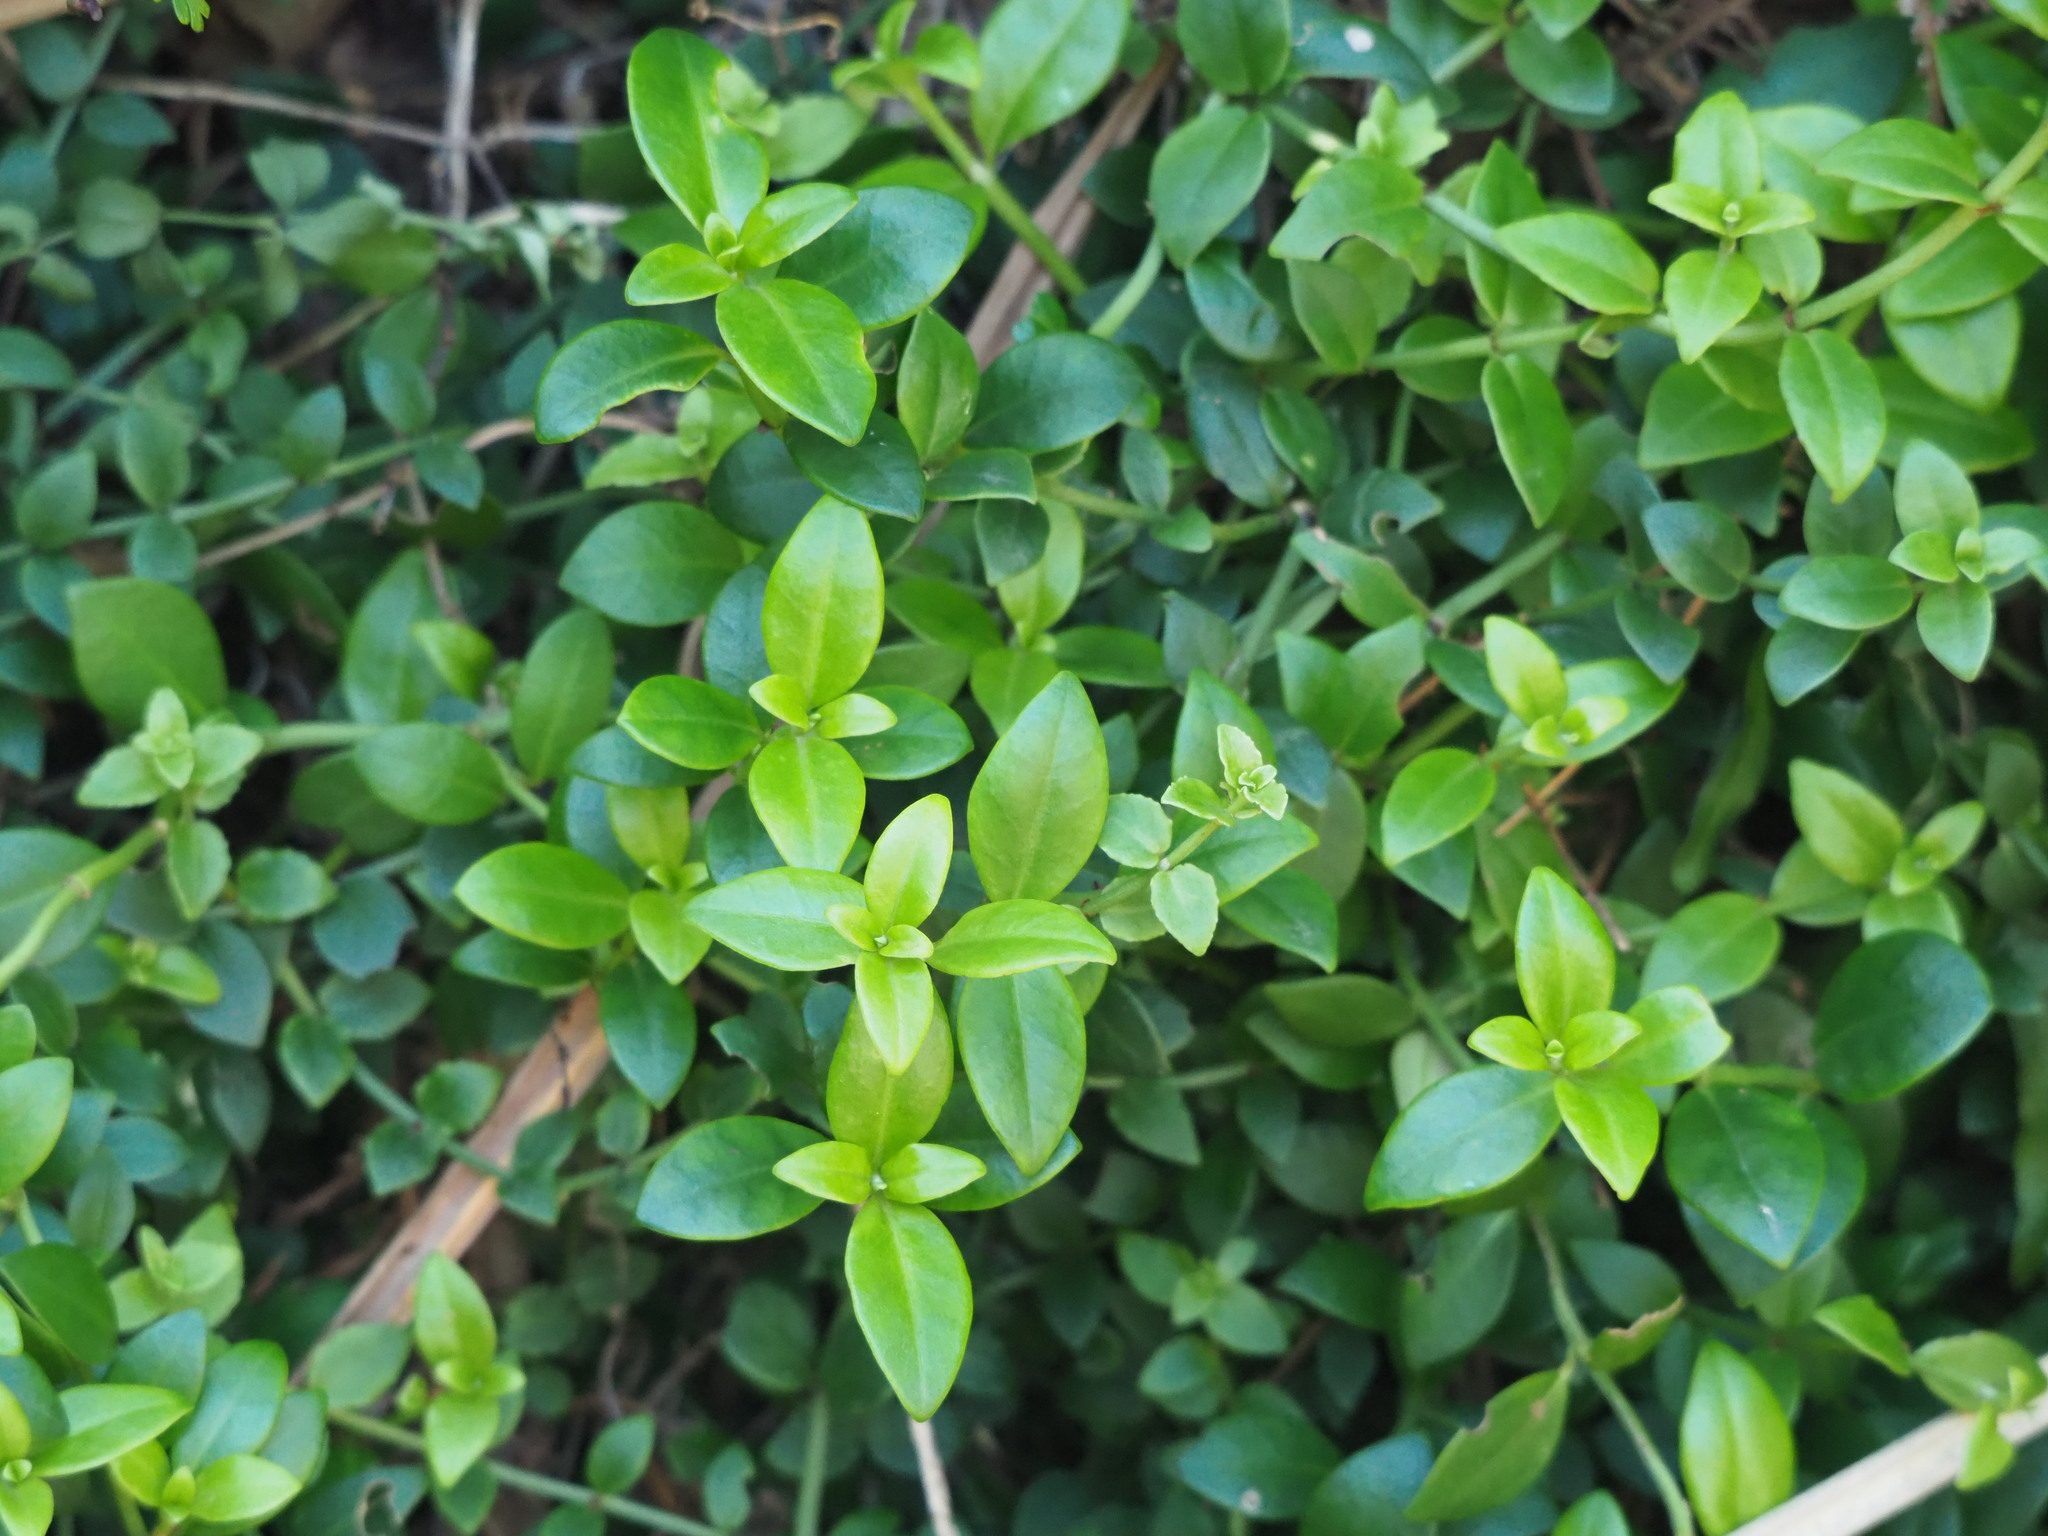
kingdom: Plantae
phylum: Tracheophyta
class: Magnoliopsida
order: Gentianales
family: Rubiaceae
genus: Psychotria
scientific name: Psychotria serpens
